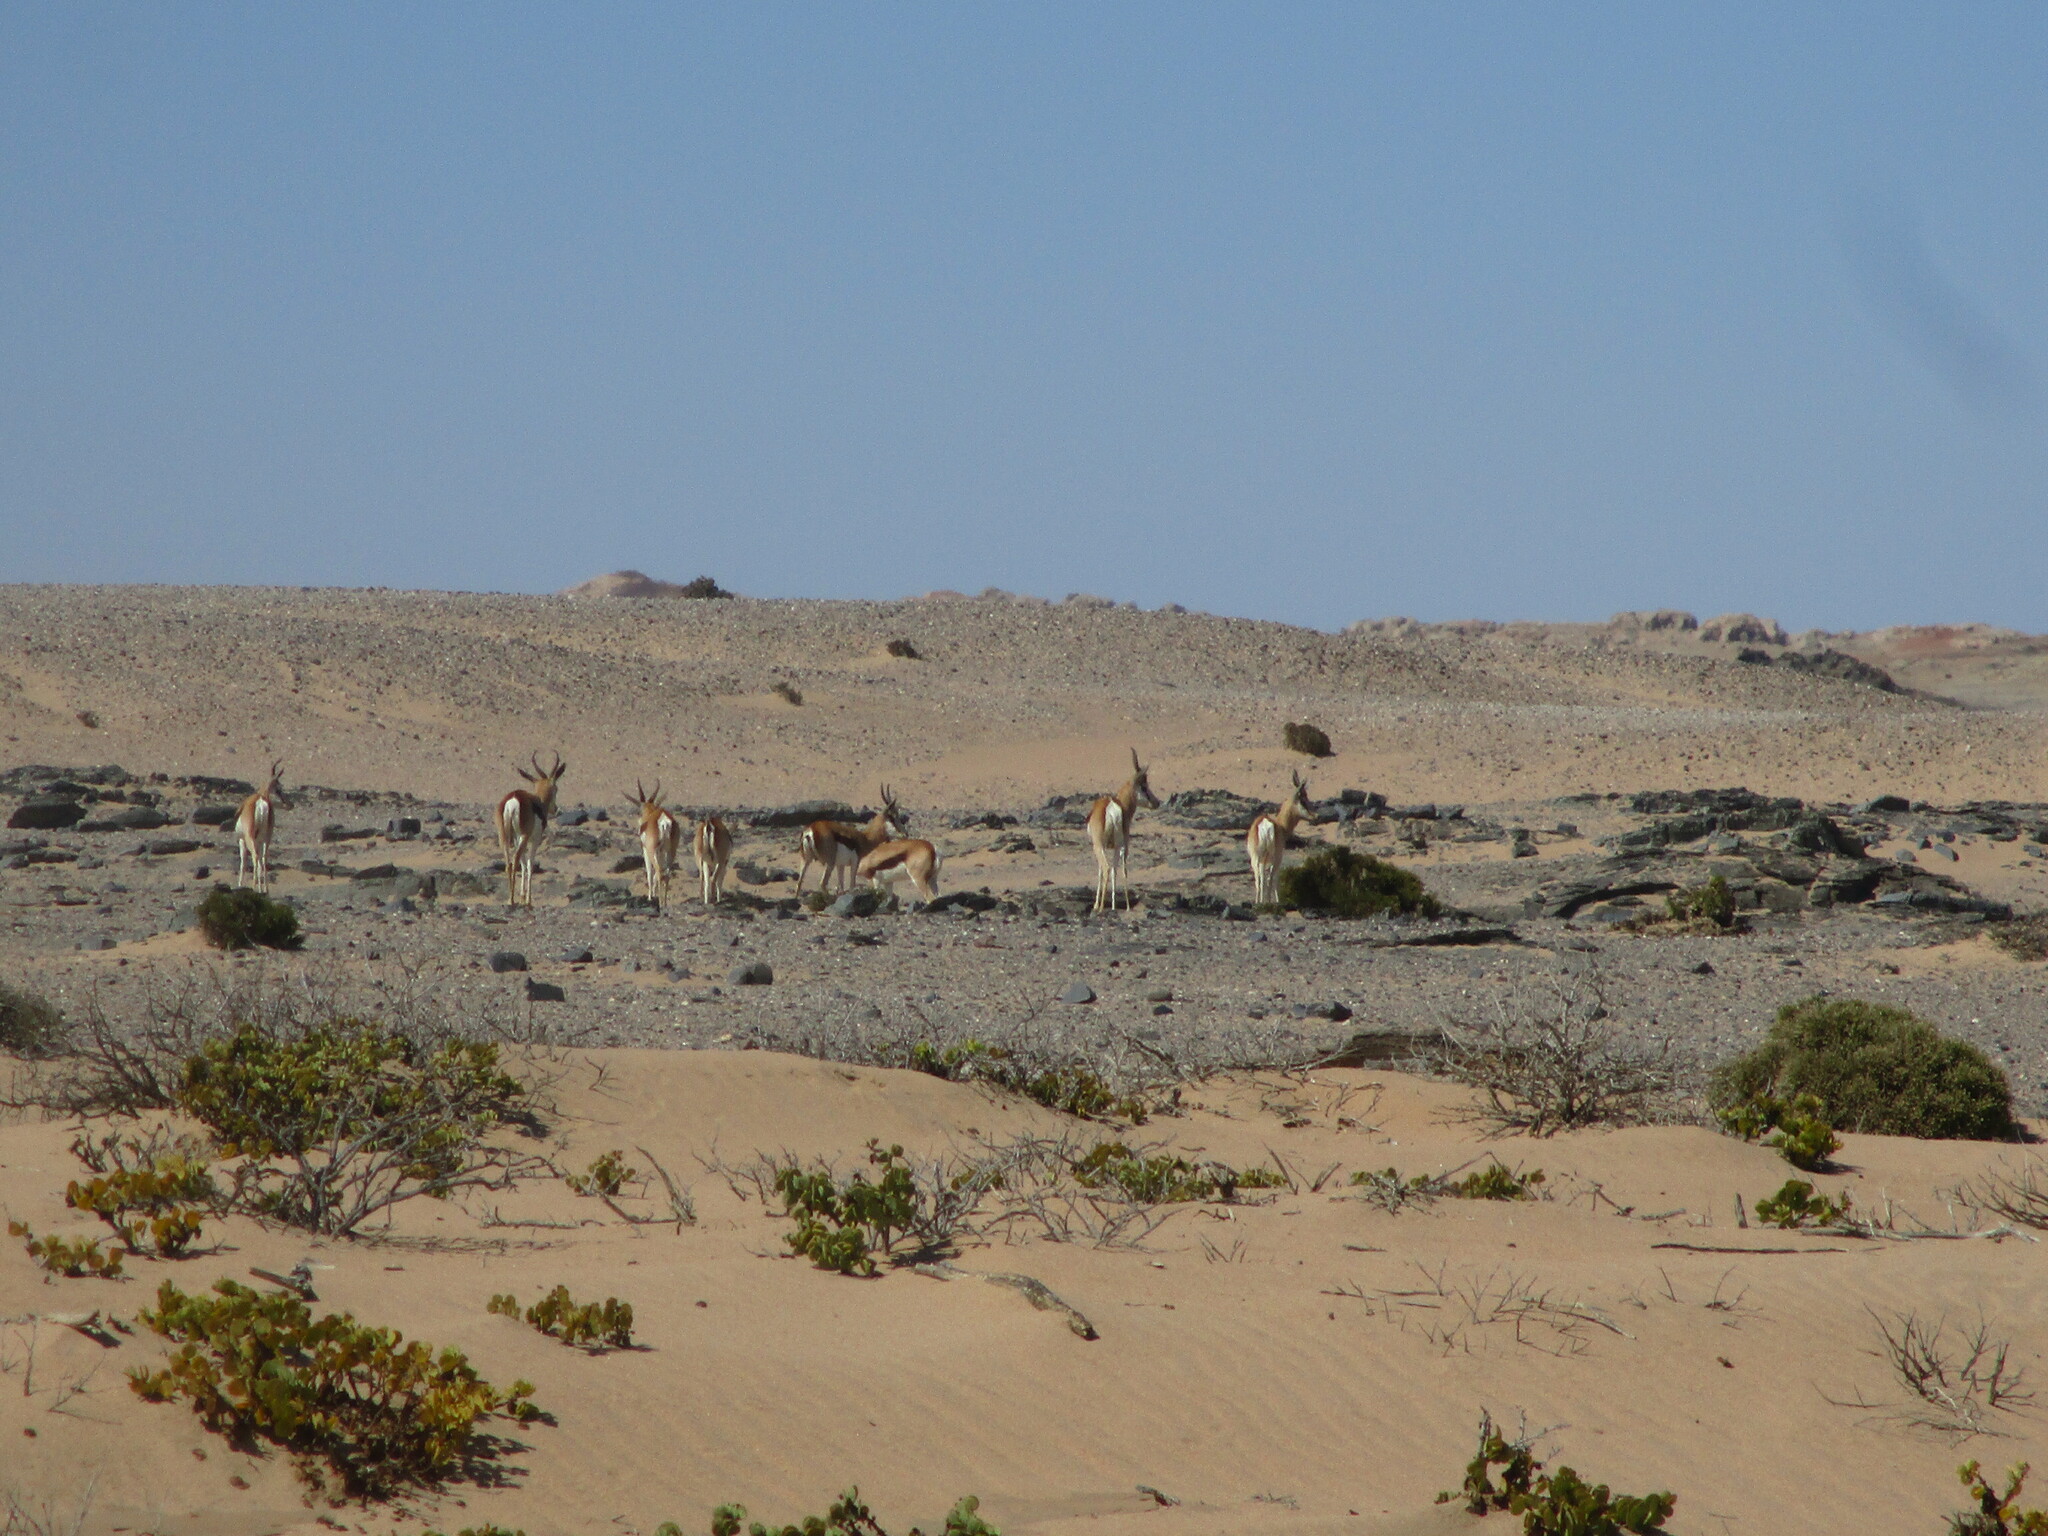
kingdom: Animalia
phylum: Chordata
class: Mammalia
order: Artiodactyla
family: Bovidae
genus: Antidorcas
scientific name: Antidorcas marsupialis
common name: Springbok
